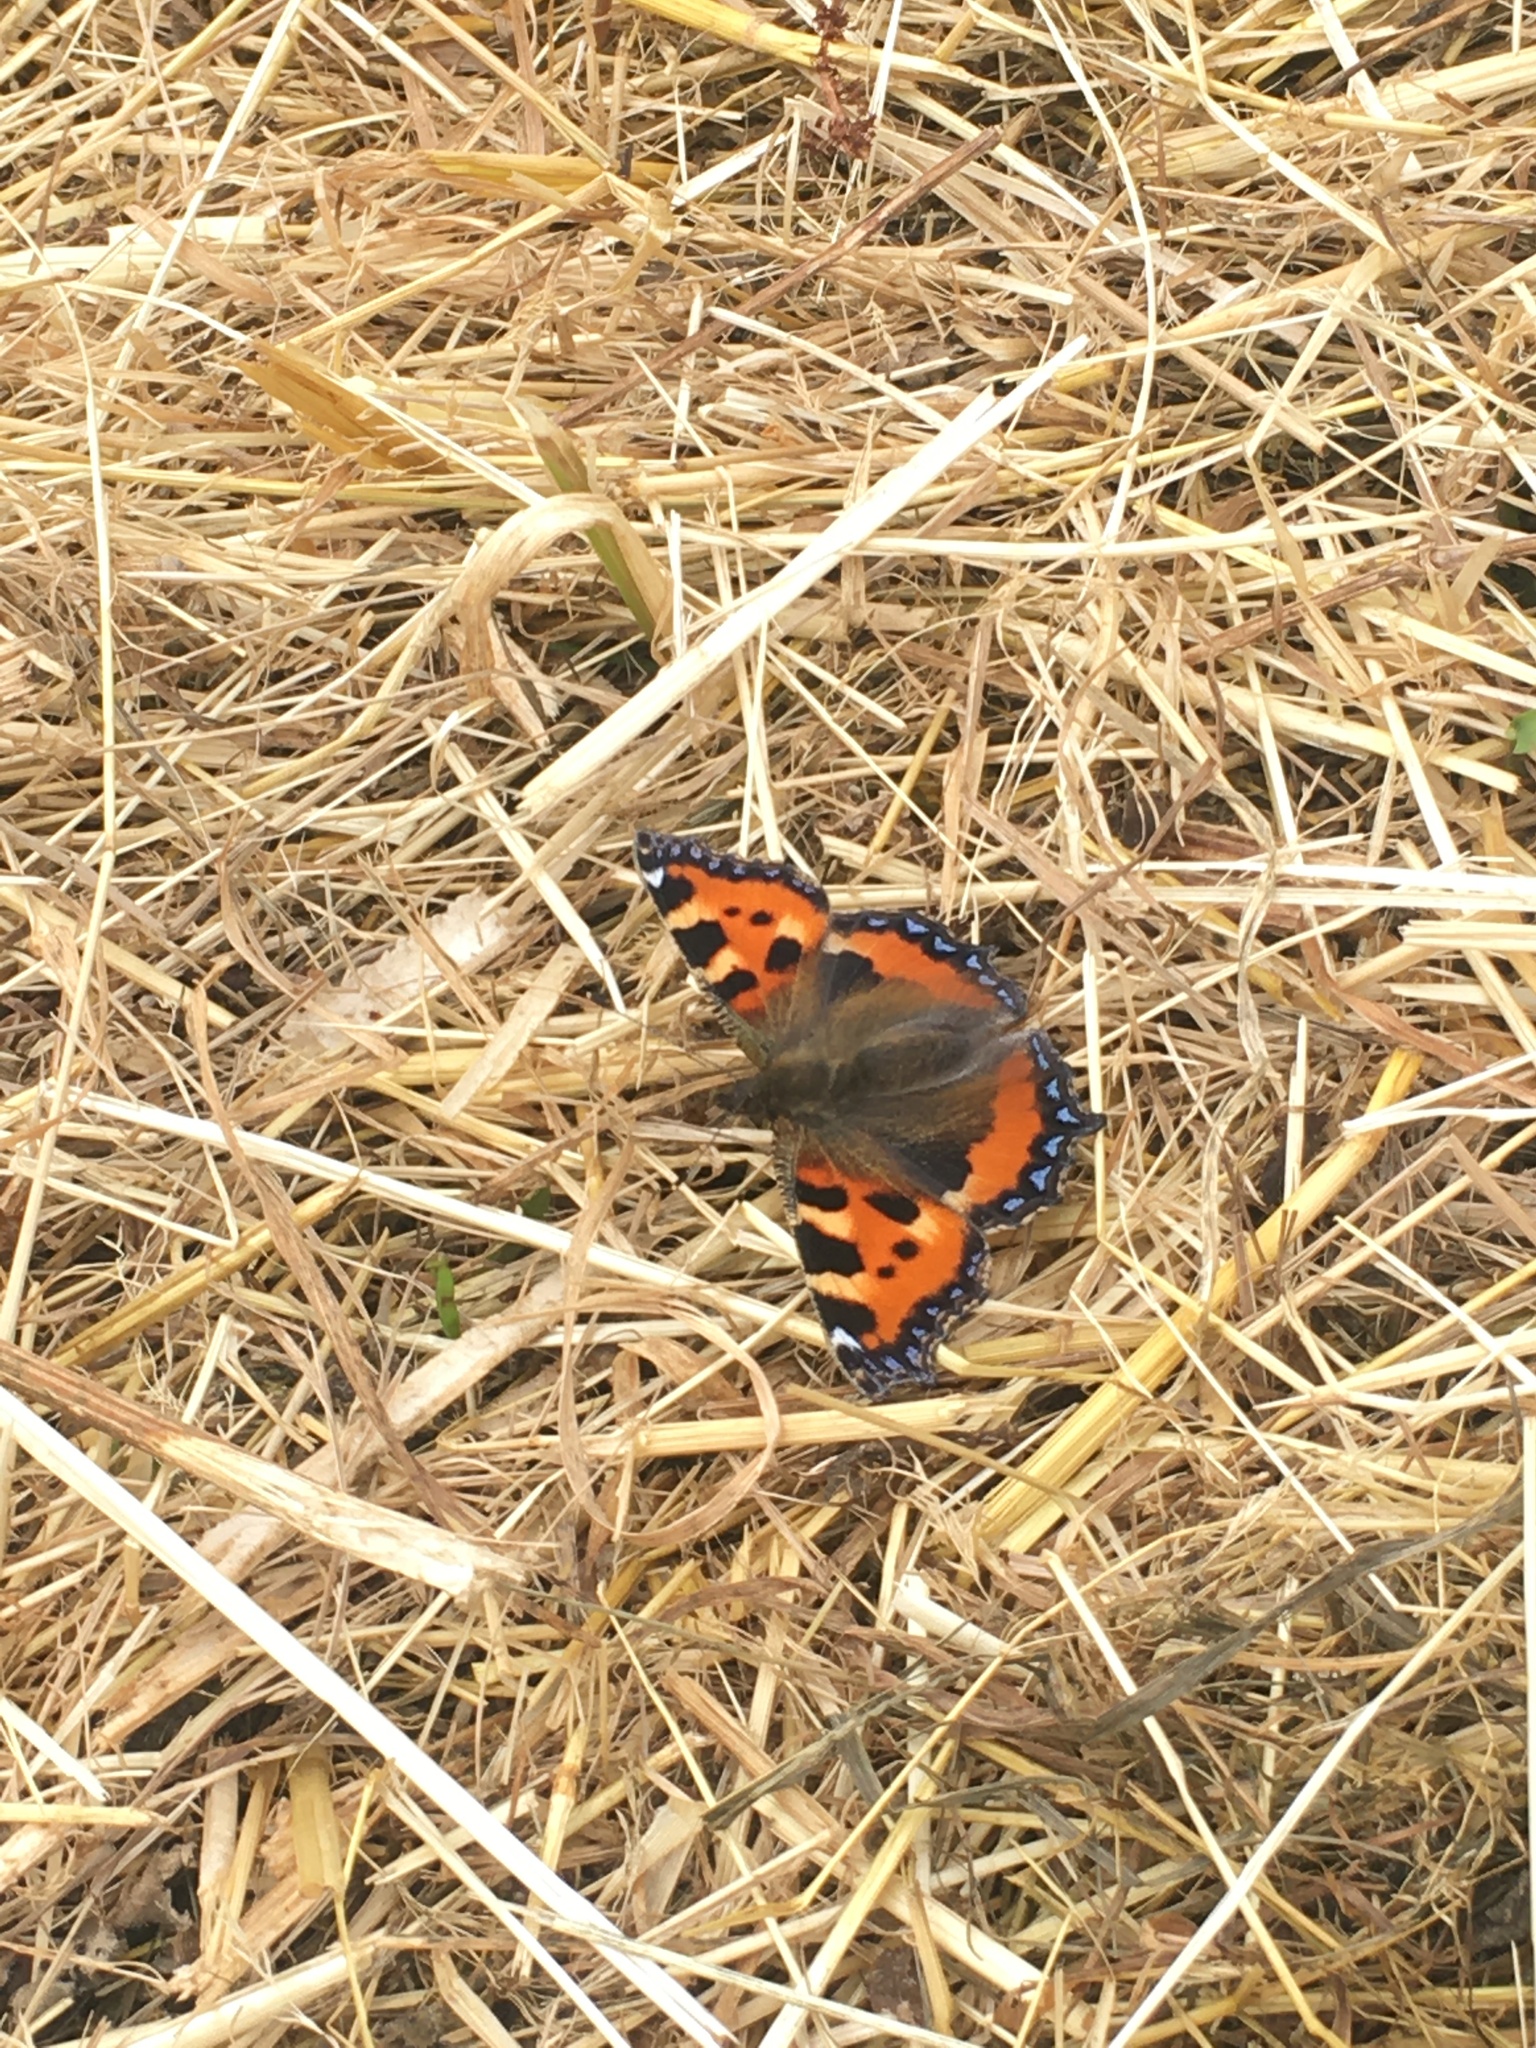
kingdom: Animalia
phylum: Arthropoda
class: Insecta
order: Lepidoptera
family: Nymphalidae
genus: Aglais
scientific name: Aglais urticae
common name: Small tortoiseshell
